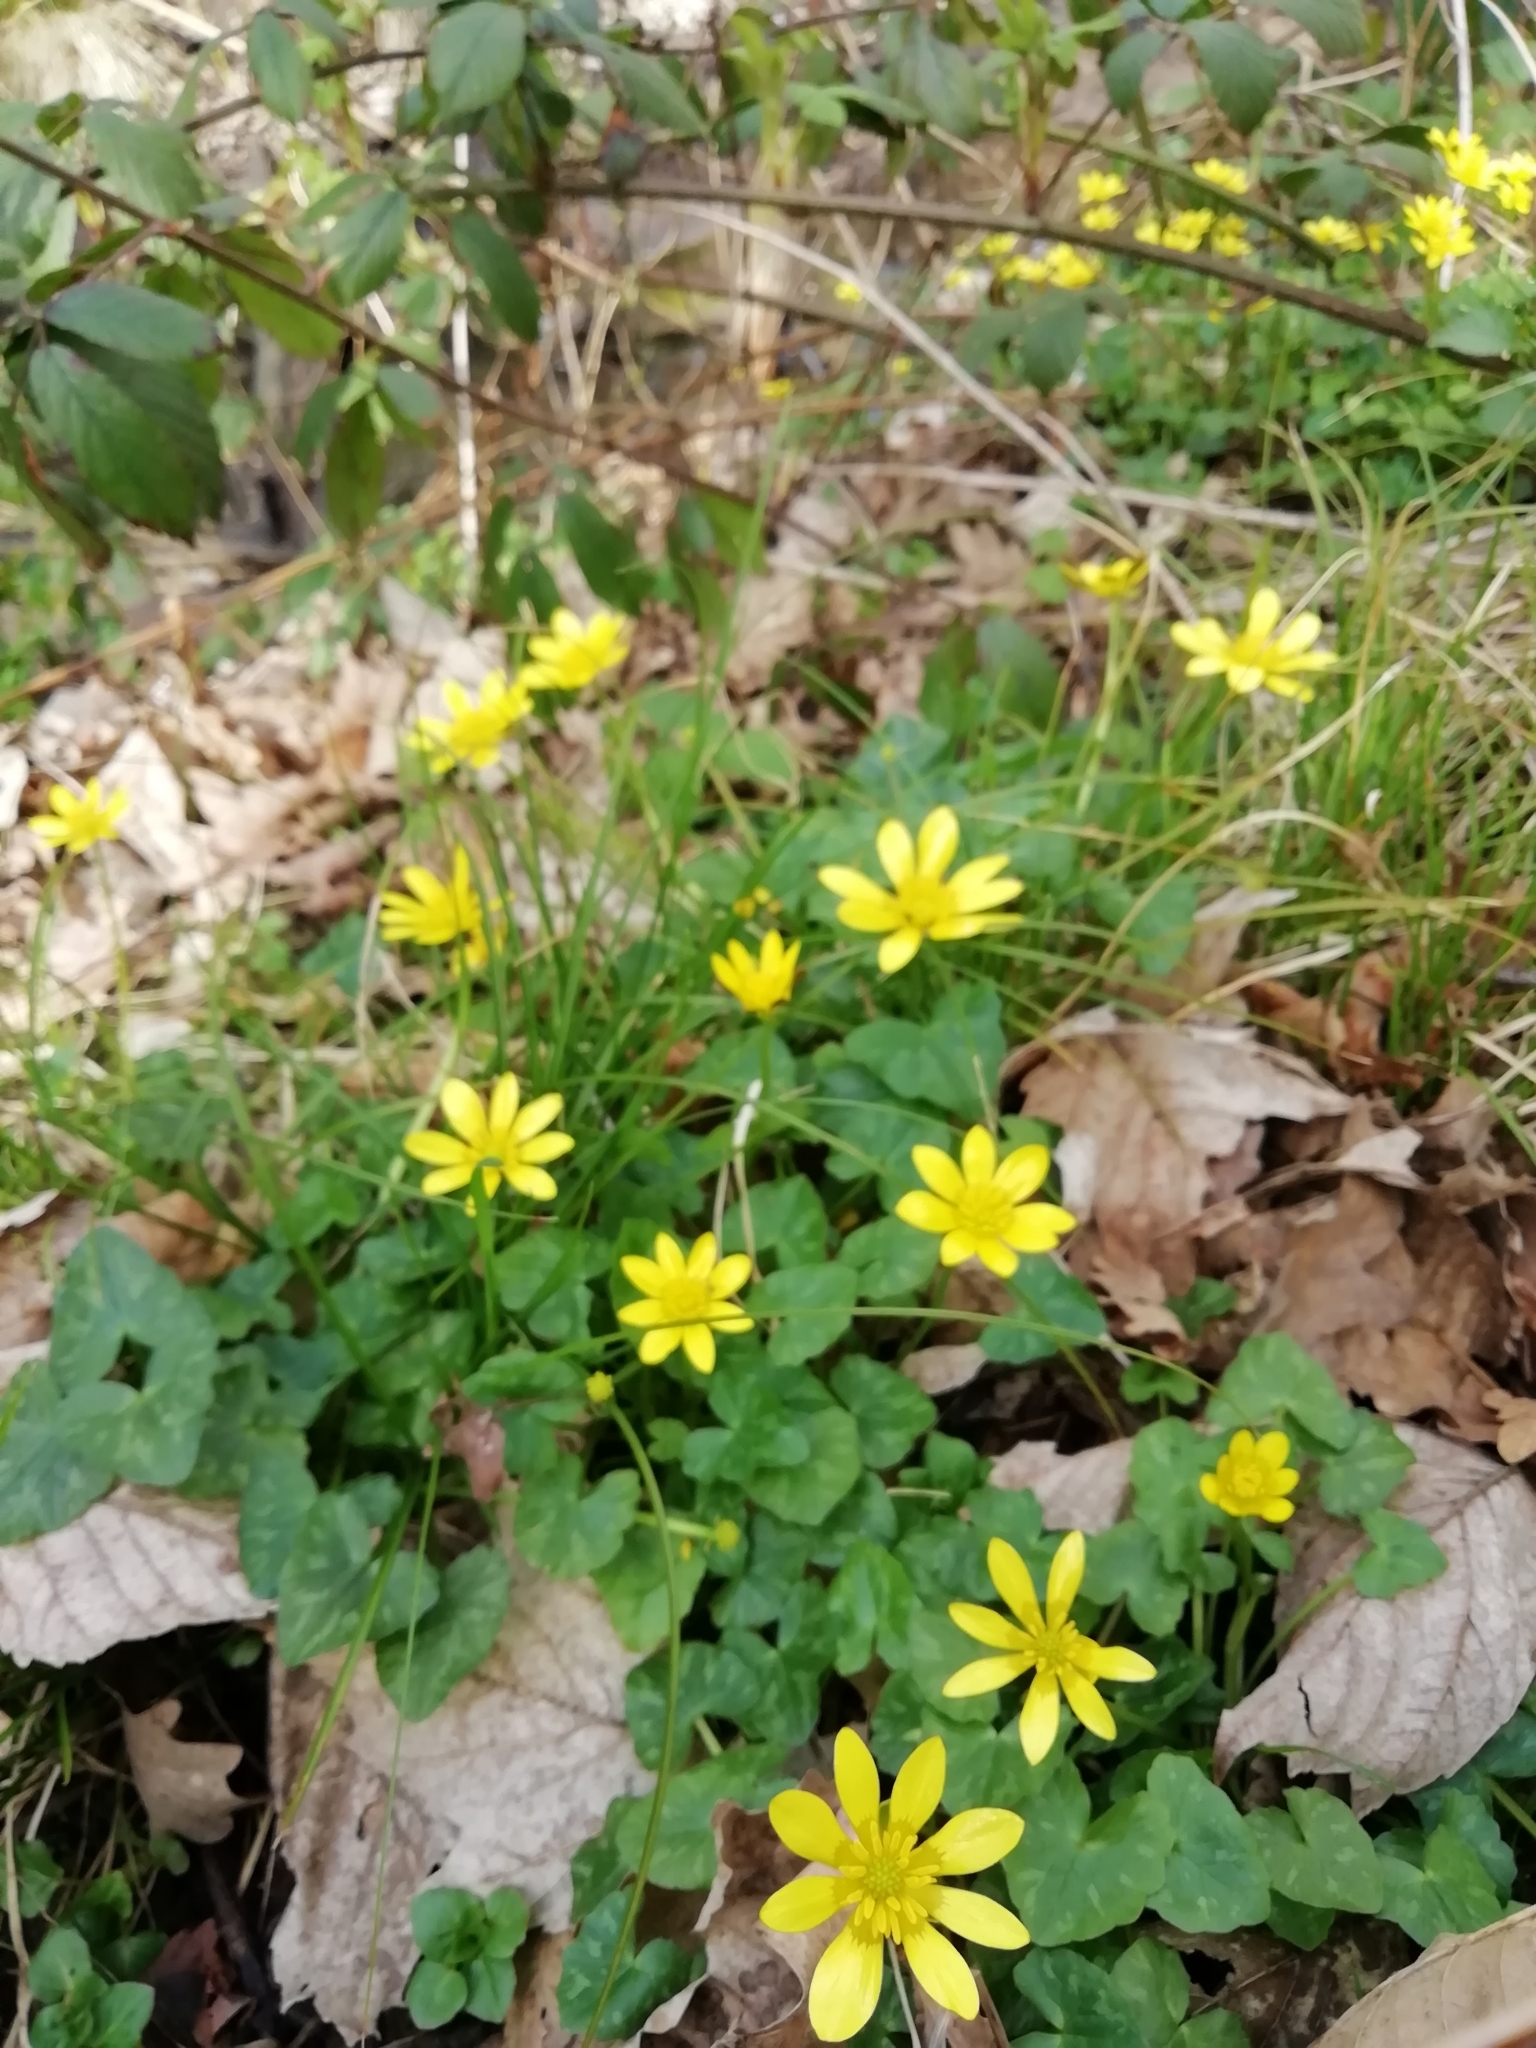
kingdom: Plantae
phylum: Tracheophyta
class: Magnoliopsida
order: Ranunculales
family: Ranunculaceae
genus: Ficaria
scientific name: Ficaria verna
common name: Lesser celandine
